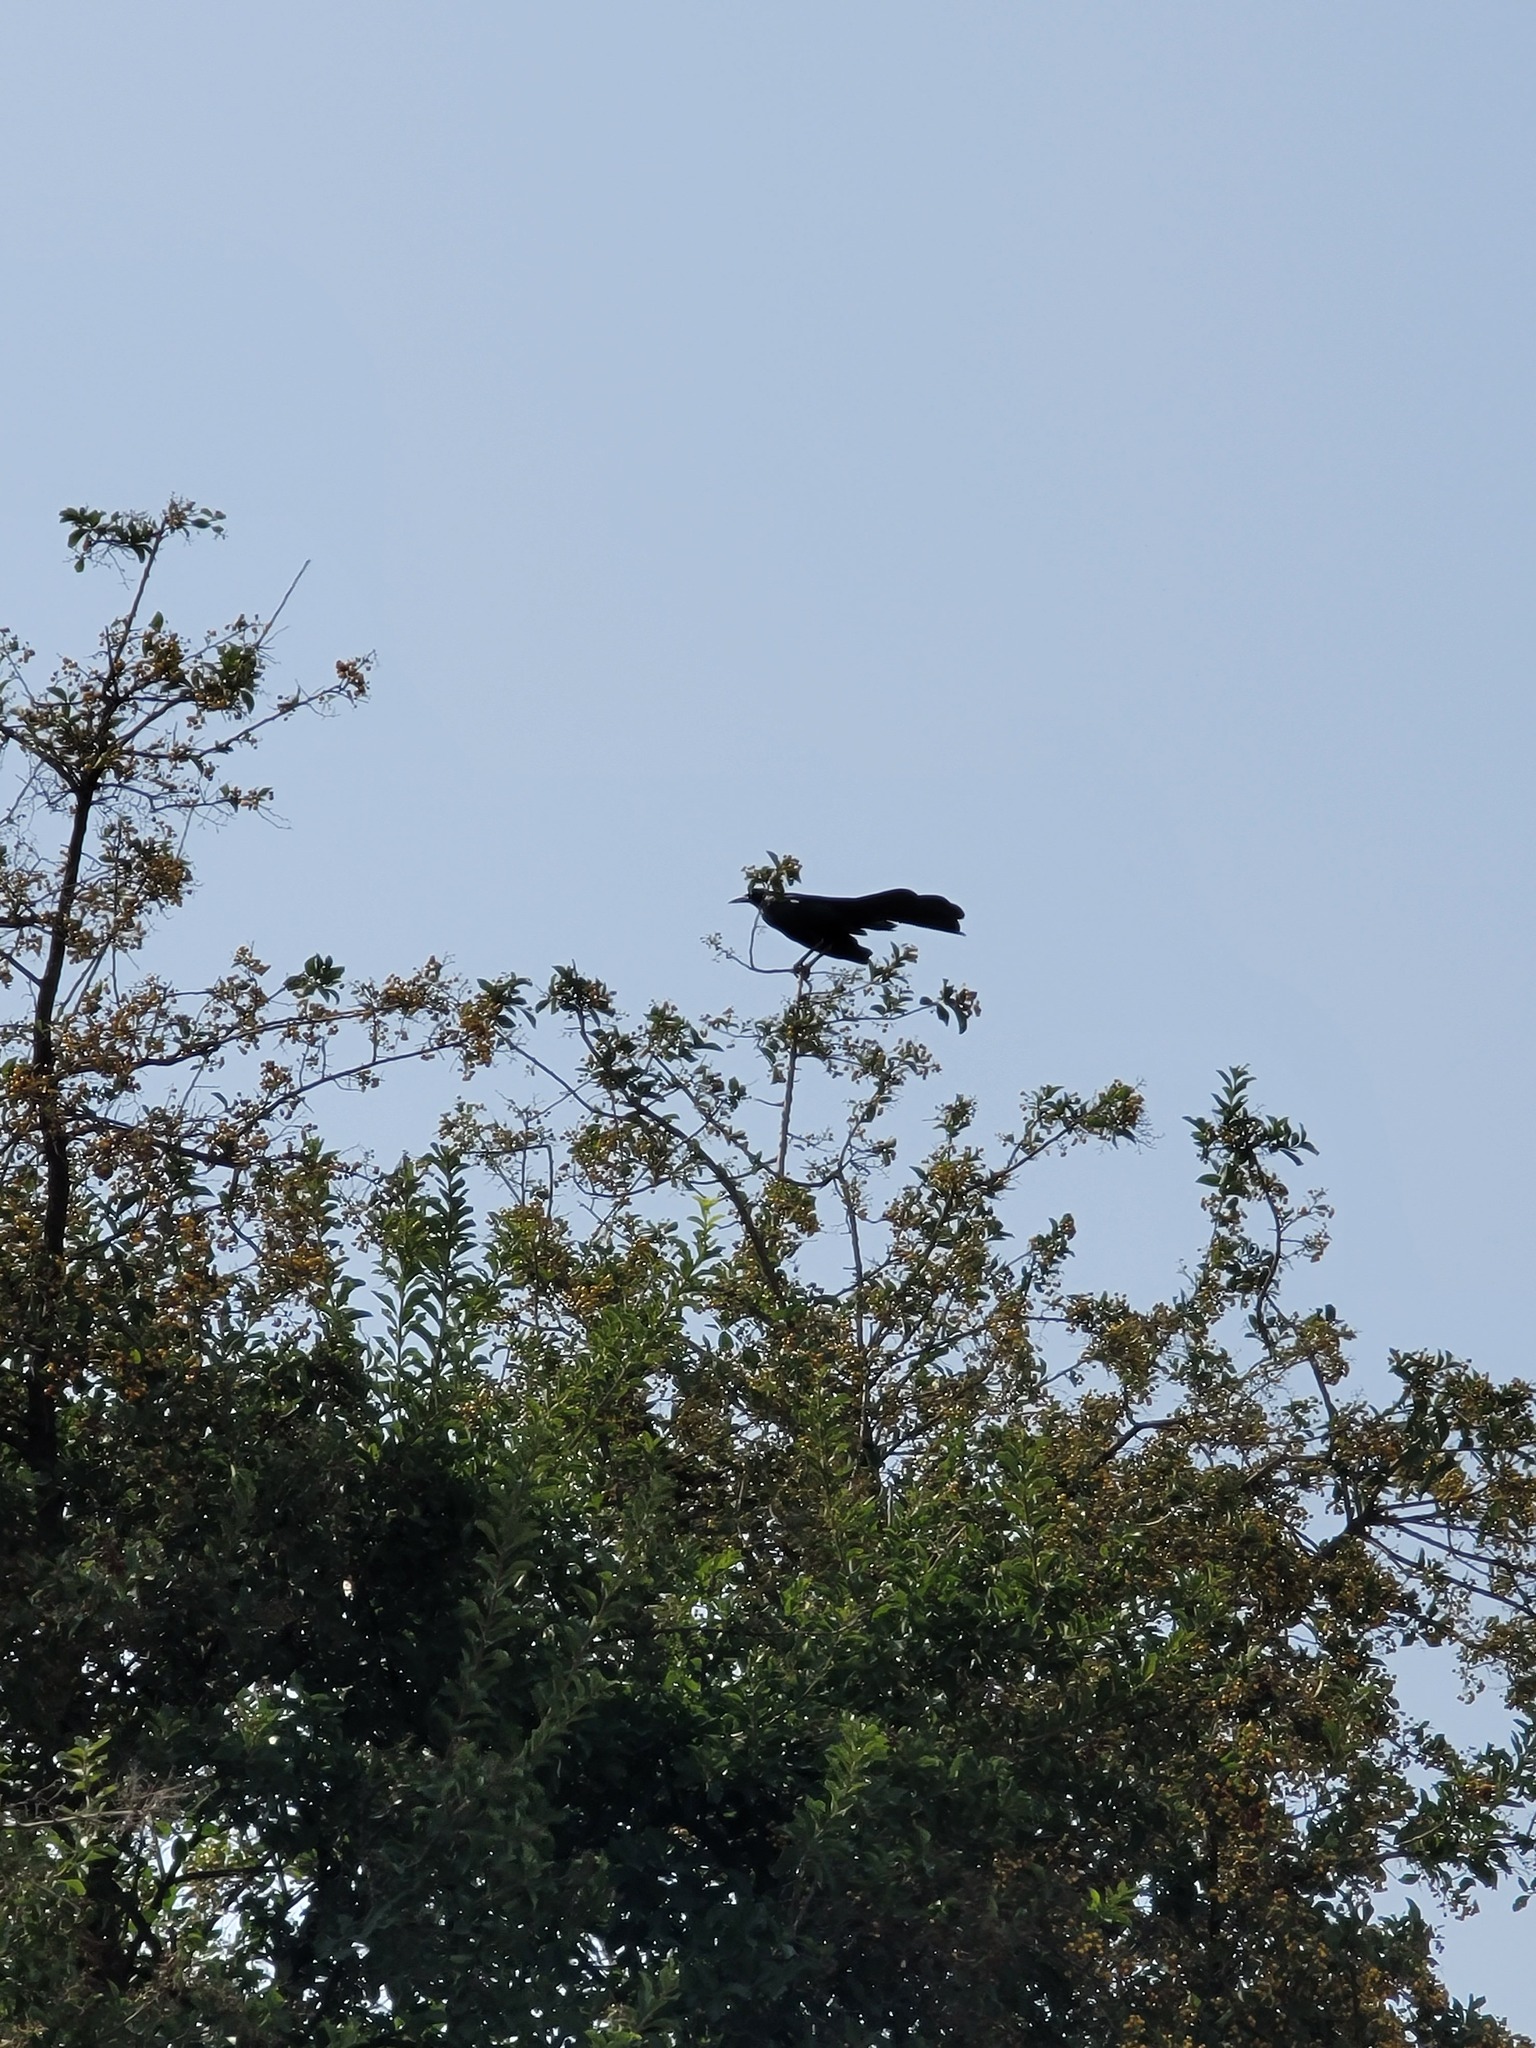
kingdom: Animalia
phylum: Chordata
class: Aves
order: Passeriformes
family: Icteridae
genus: Quiscalus
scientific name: Quiscalus mexicanus
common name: Great-tailed grackle
